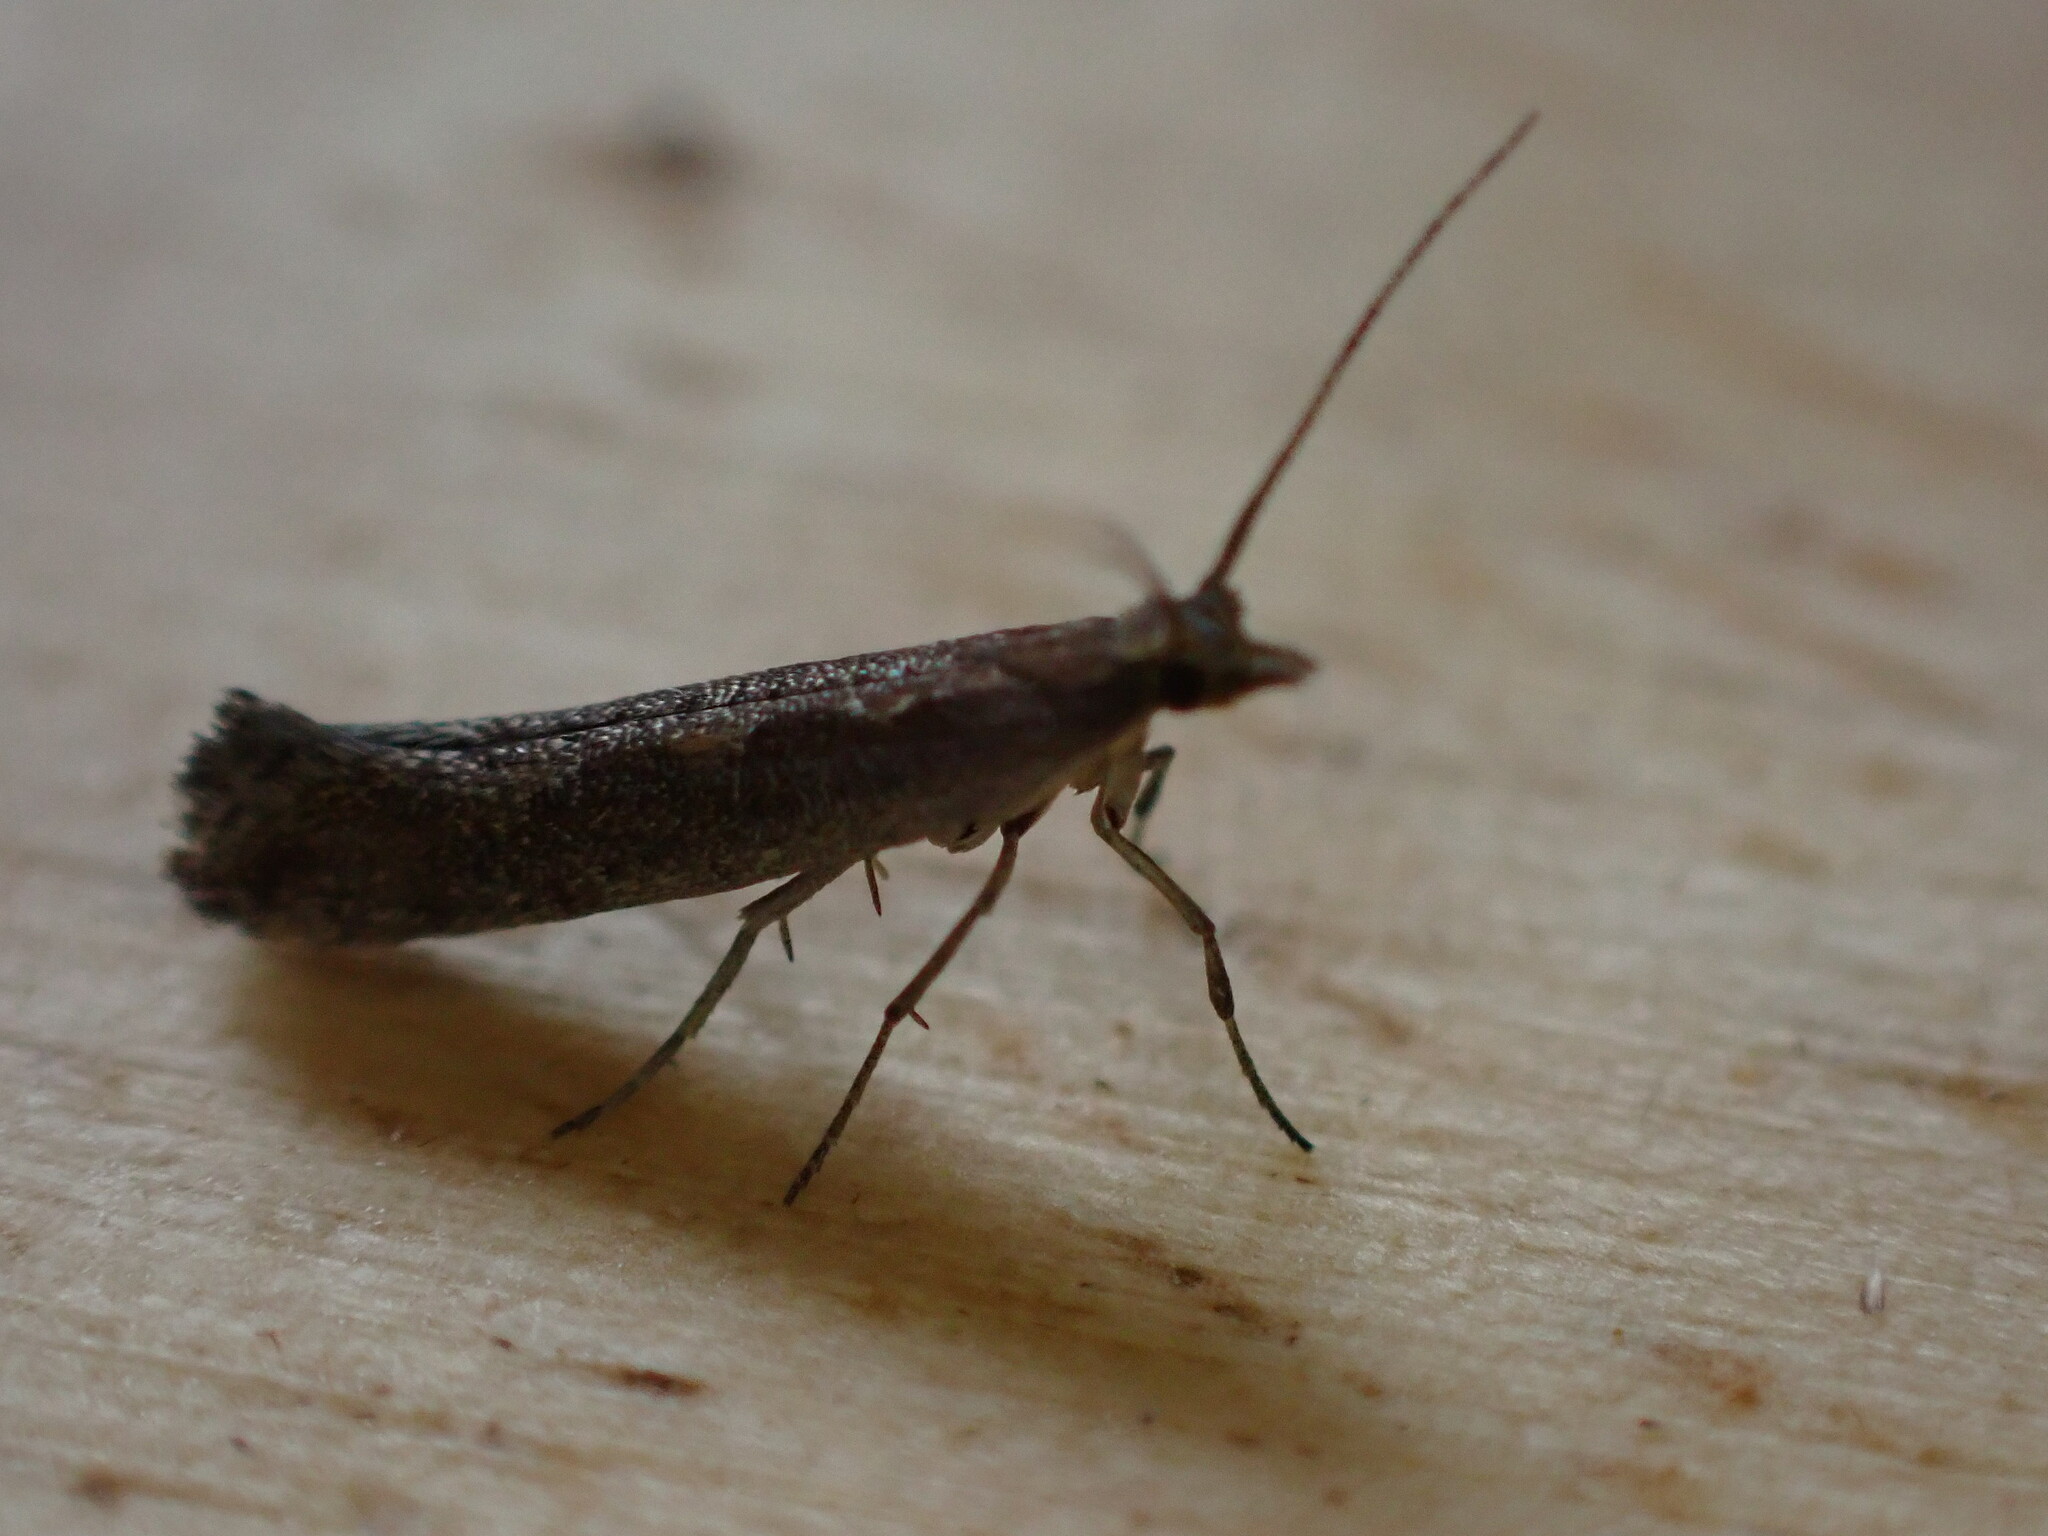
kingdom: Animalia
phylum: Arthropoda
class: Insecta
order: Lepidoptera
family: Plutellidae
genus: Plutella
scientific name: Plutella xylostella
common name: Diamond-back moth
